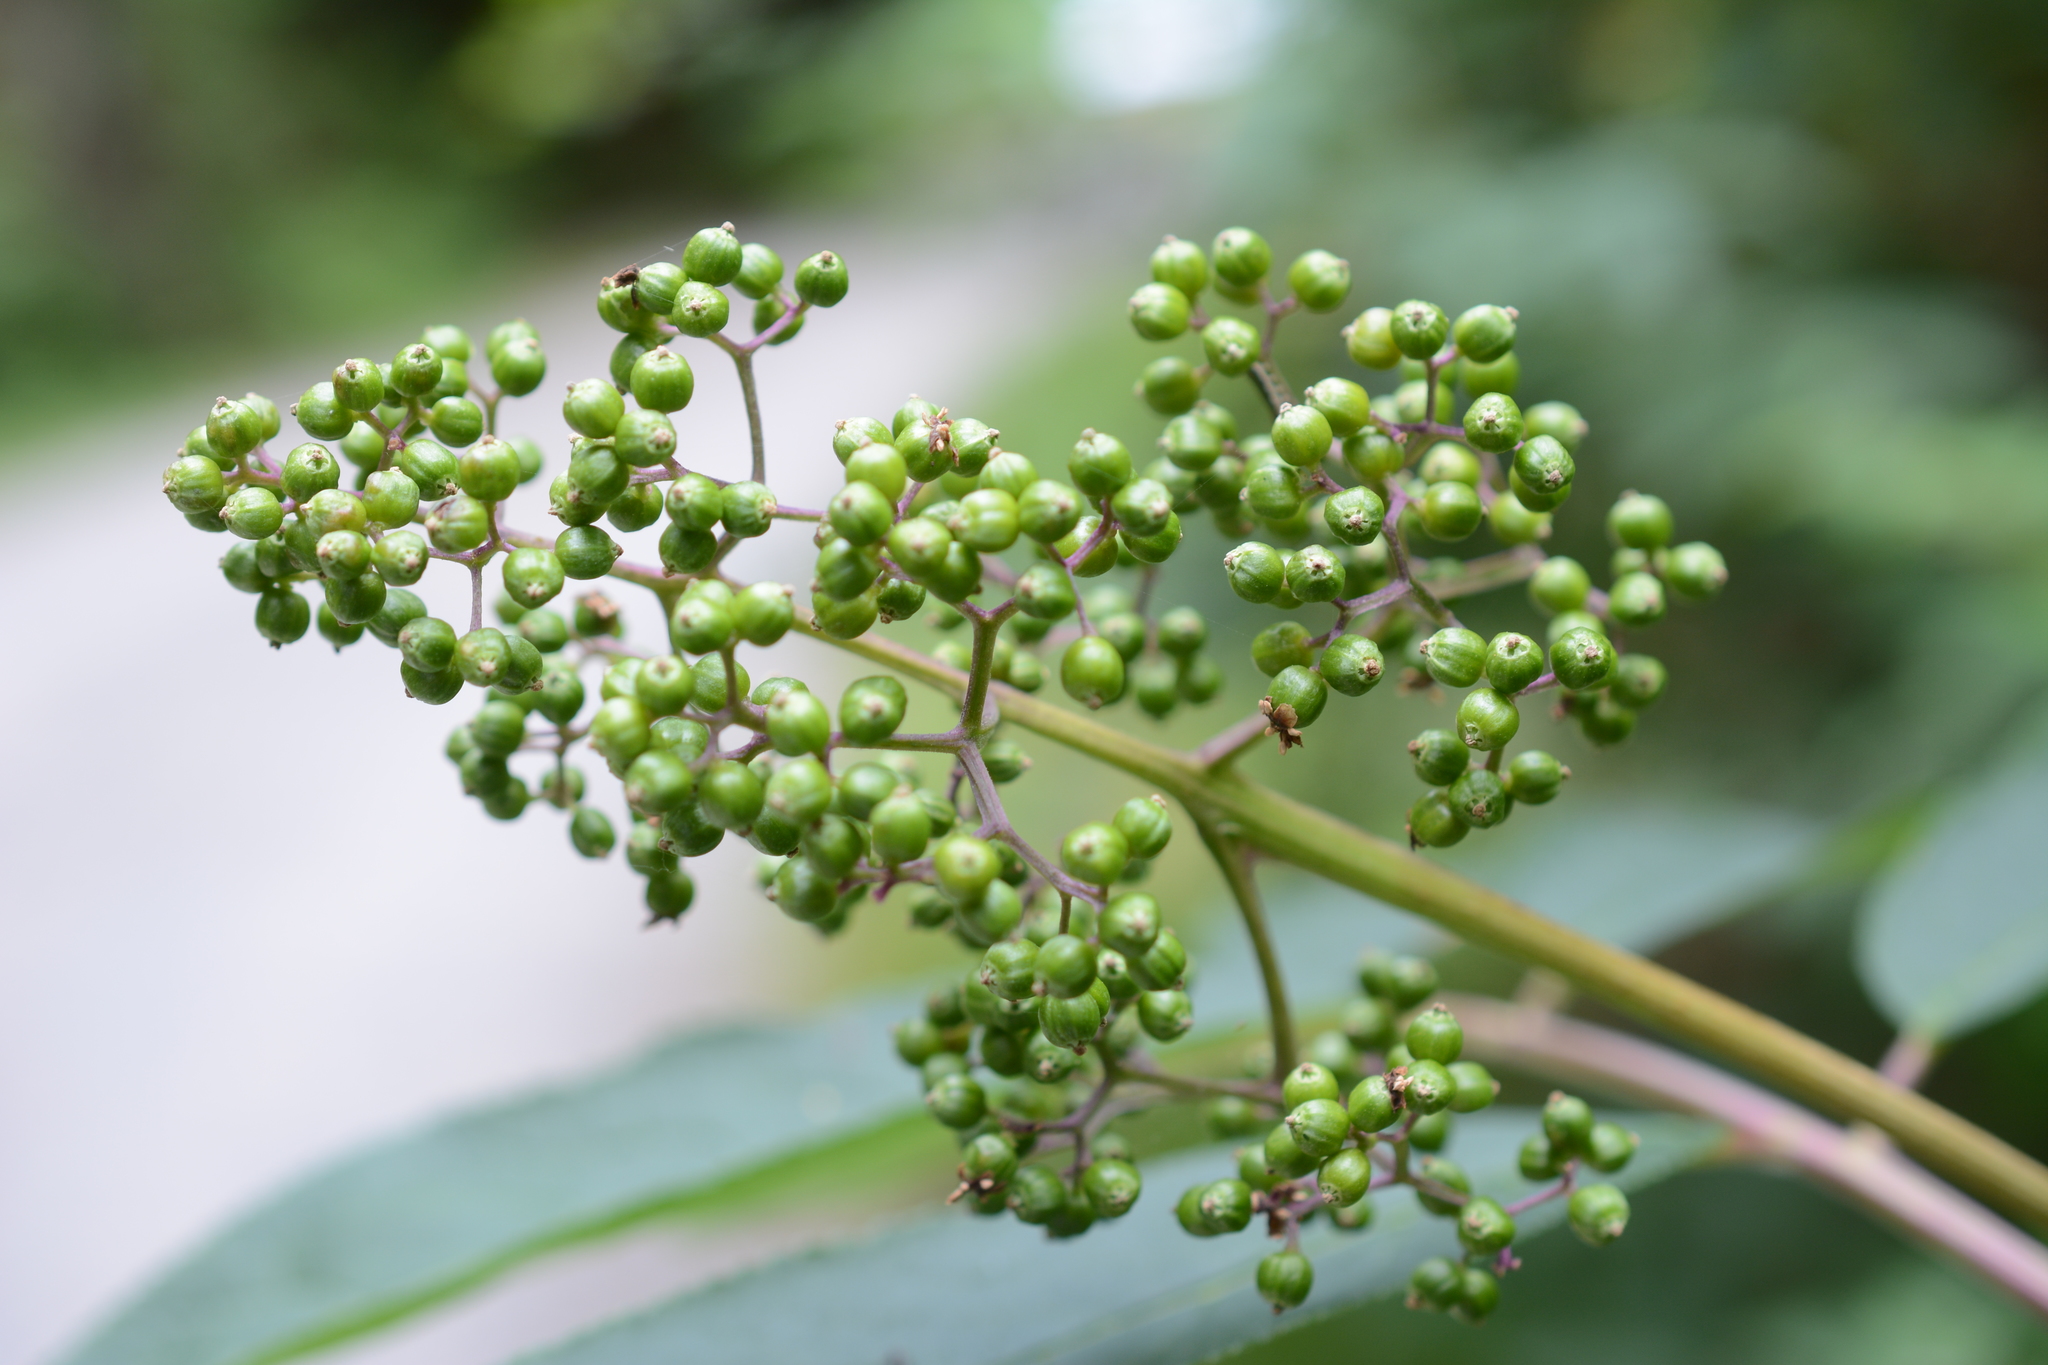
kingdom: Plantae
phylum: Tracheophyta
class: Magnoliopsida
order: Dipsacales
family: Viburnaceae
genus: Sambucus
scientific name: Sambucus racemosa
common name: Red-berried elder
